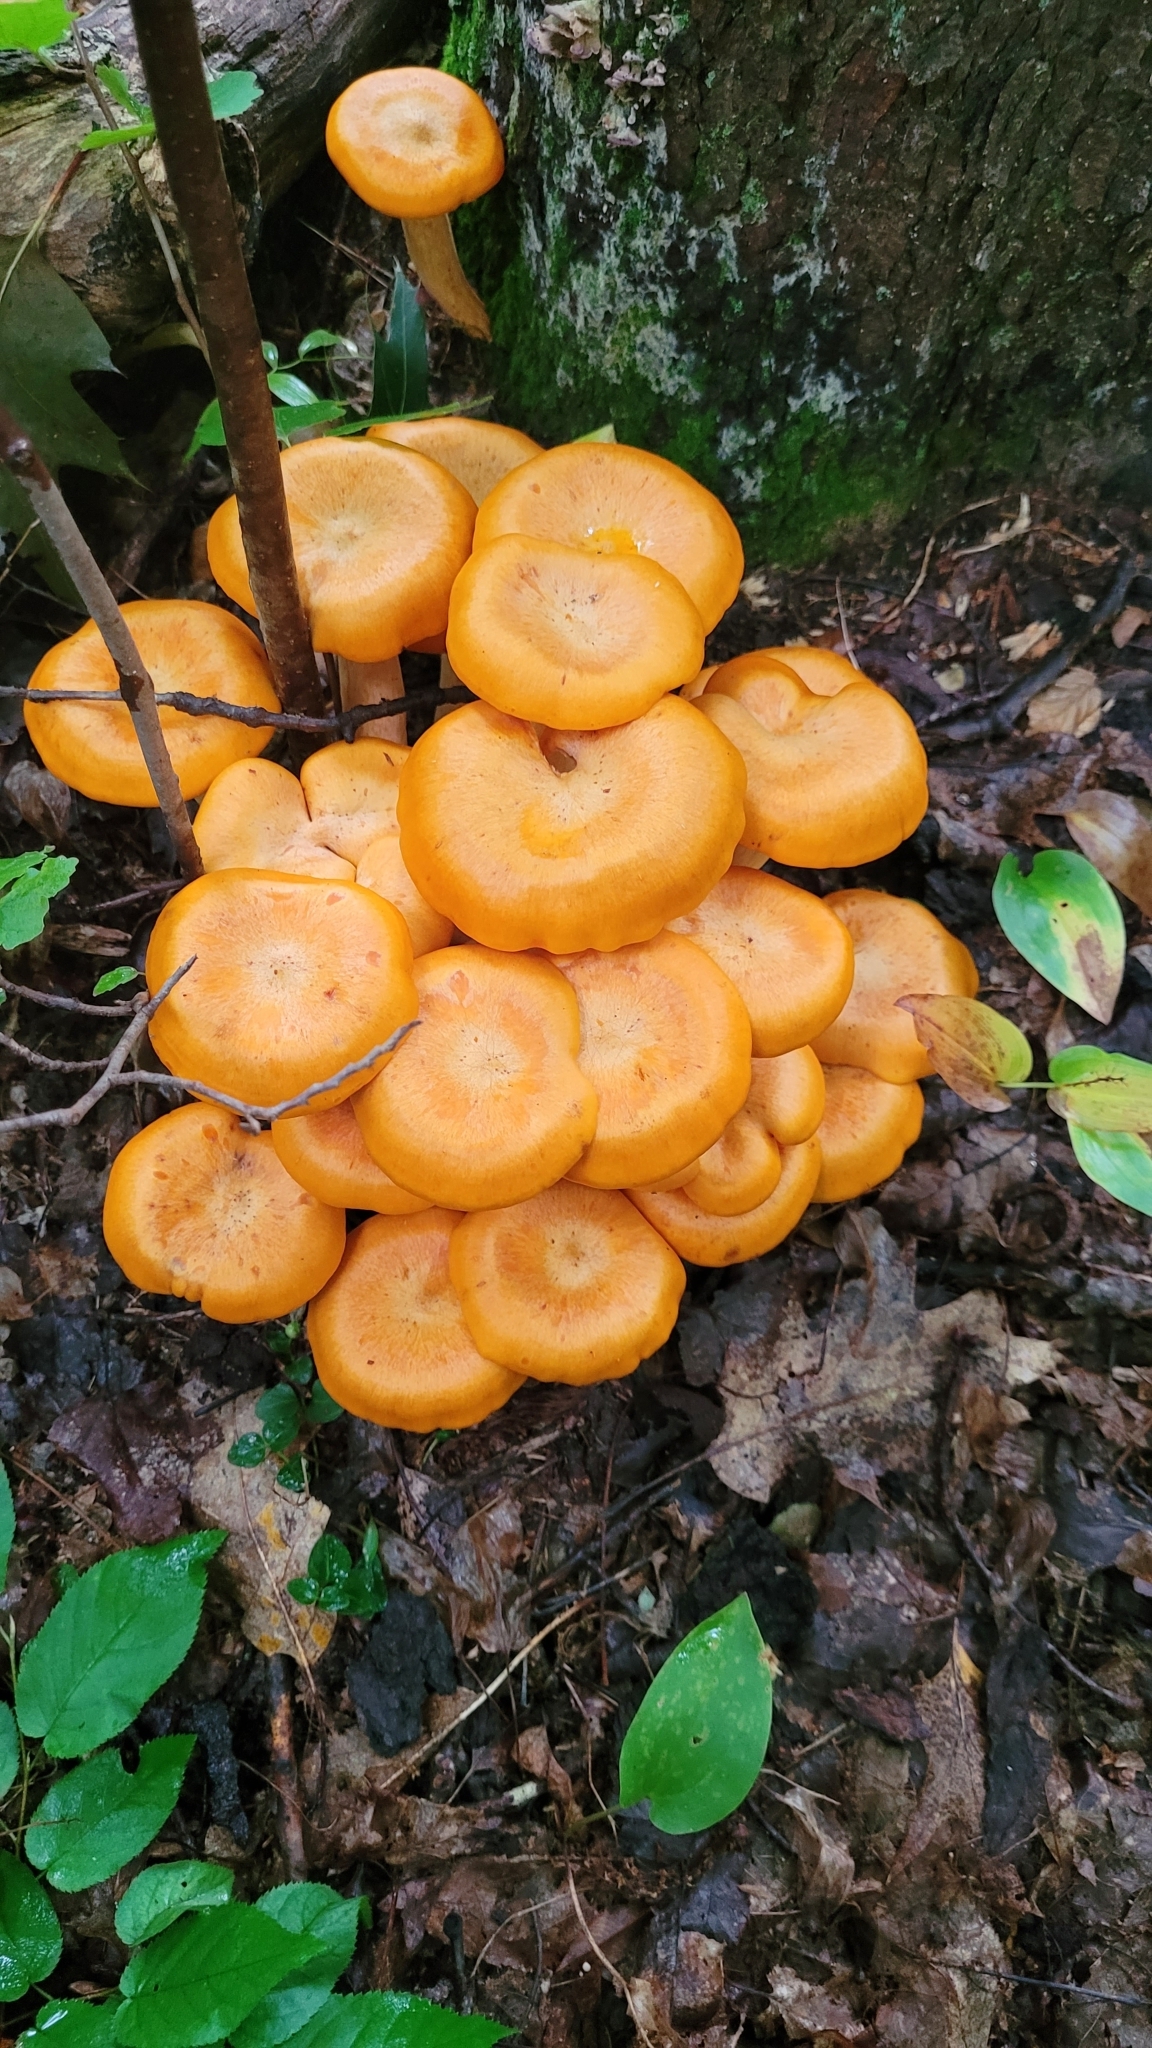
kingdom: Fungi
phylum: Basidiomycota
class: Agaricomycetes
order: Agaricales
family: Omphalotaceae
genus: Omphalotus
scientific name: Omphalotus illudens
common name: Jack o lantern
